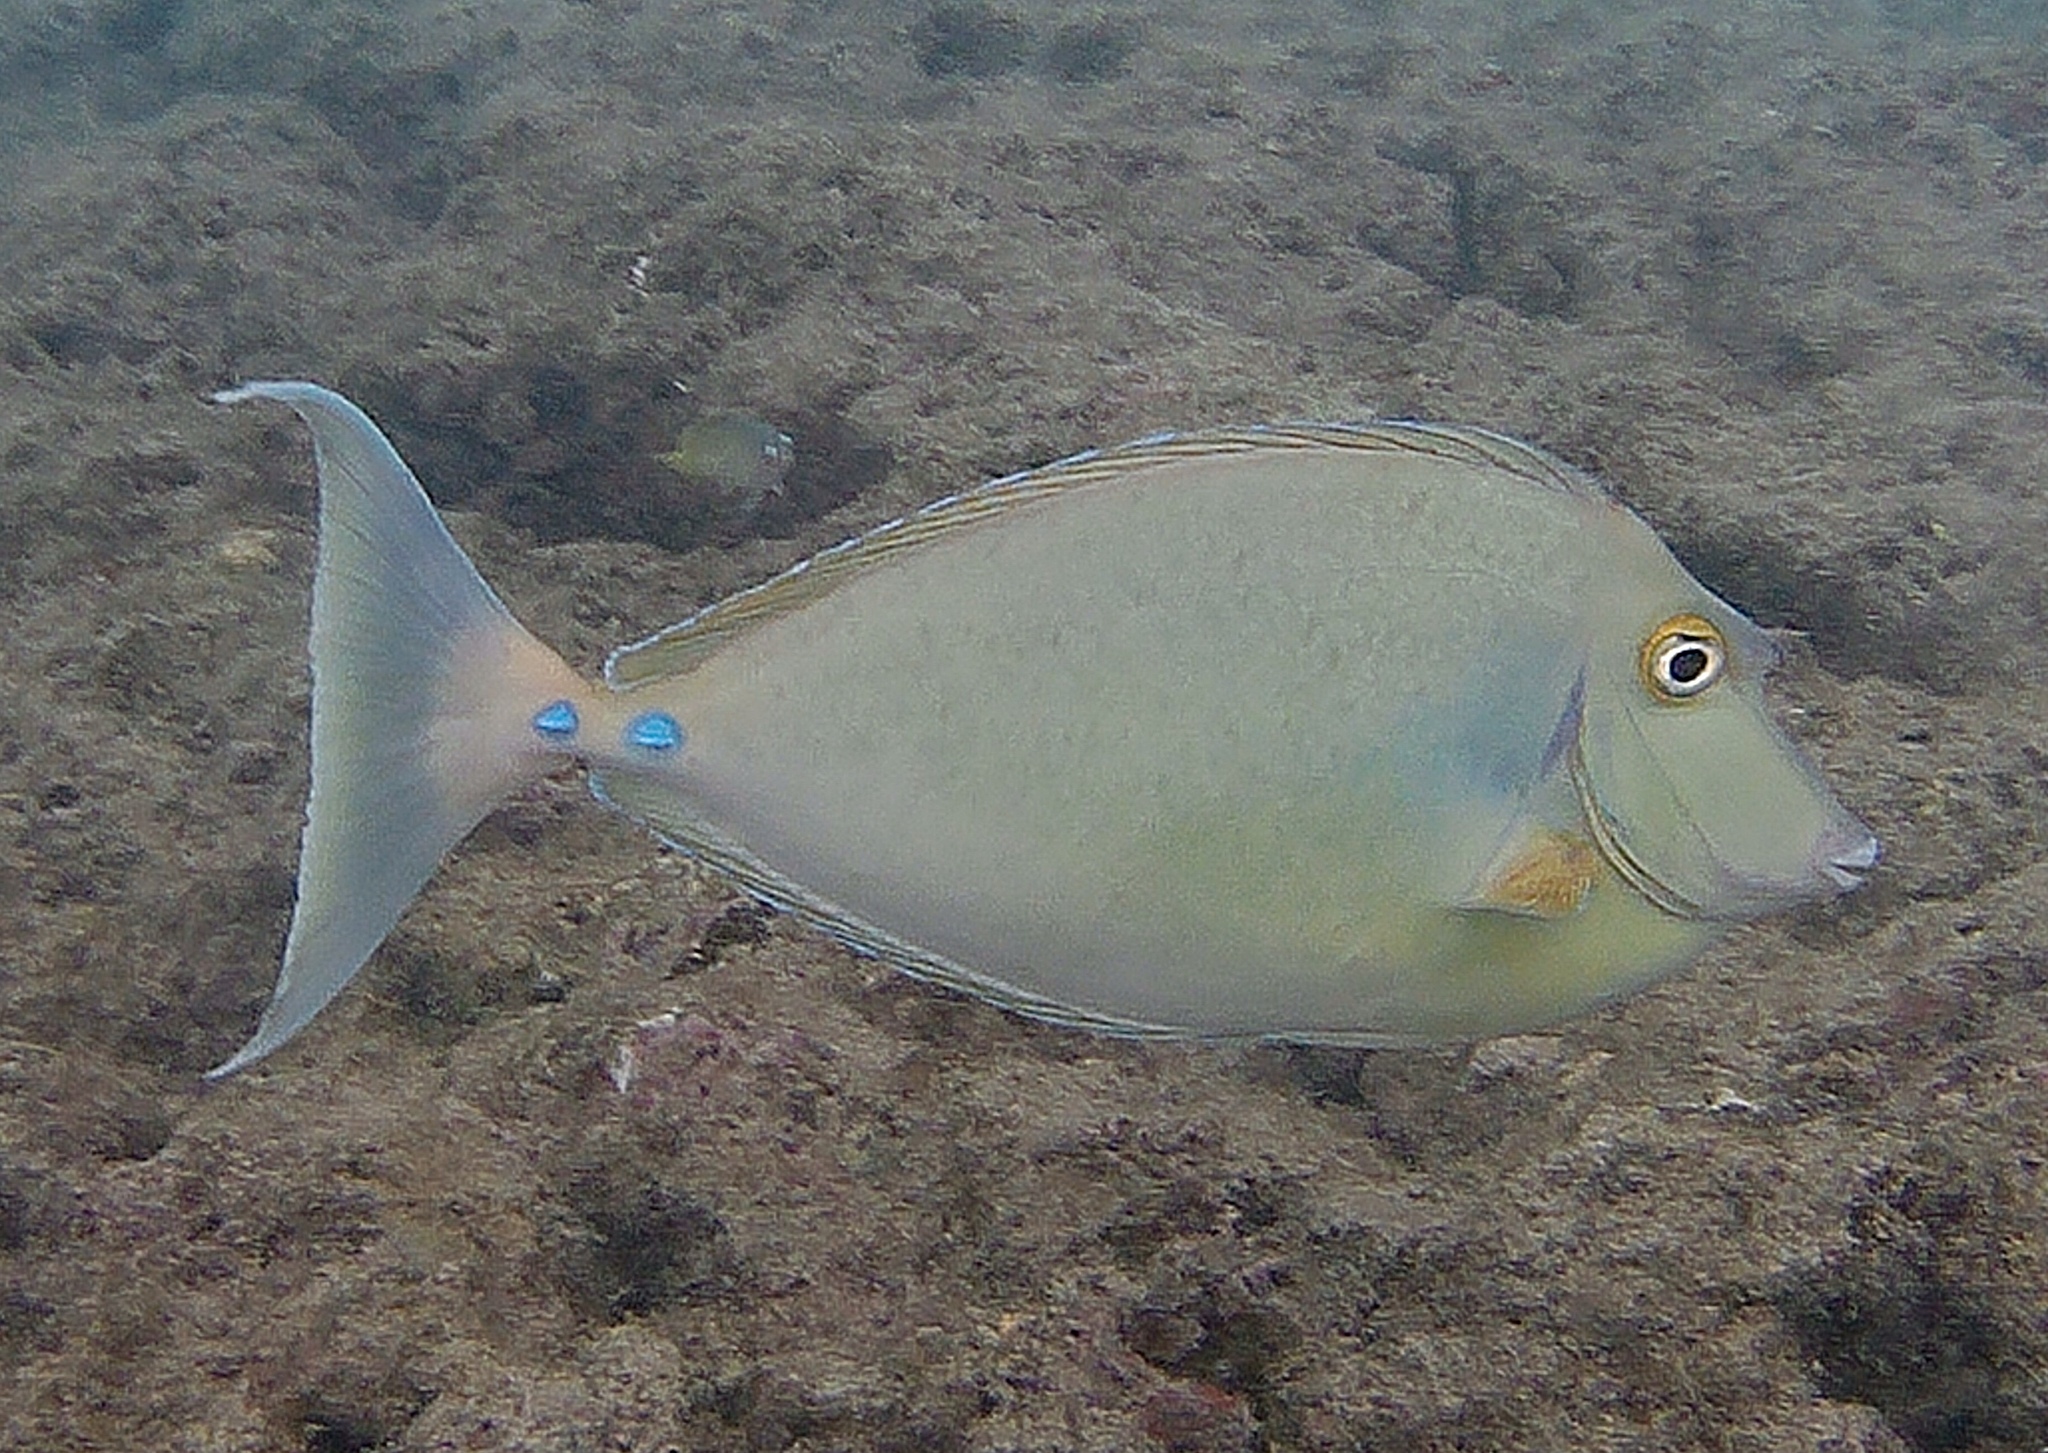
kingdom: Animalia
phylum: Chordata
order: Perciformes
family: Acanthuridae
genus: Naso
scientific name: Naso unicornis
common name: Bluespine unicornfish
